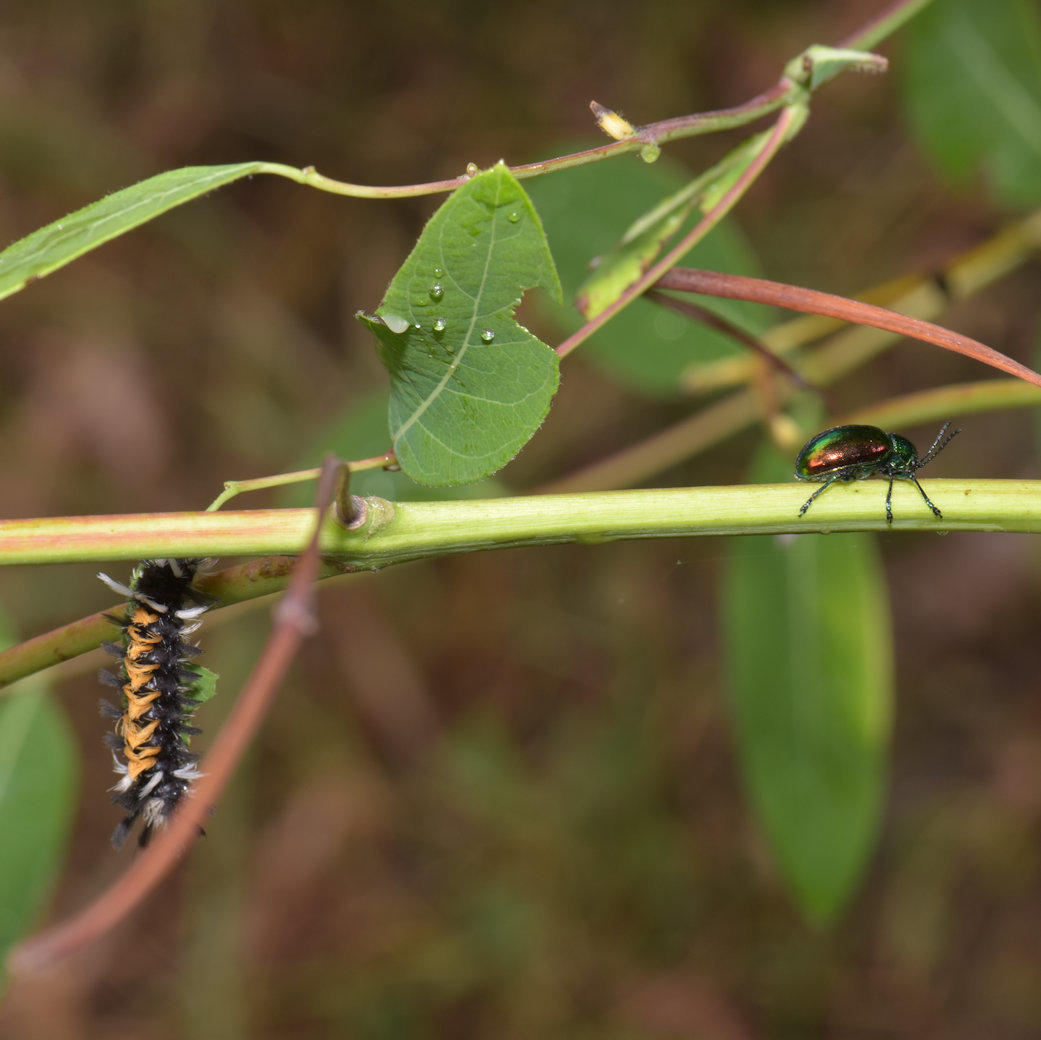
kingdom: Animalia
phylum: Arthropoda
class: Insecta
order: Lepidoptera
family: Erebidae
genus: Euchaetes
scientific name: Euchaetes egle
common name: Milkweed tussock moth
